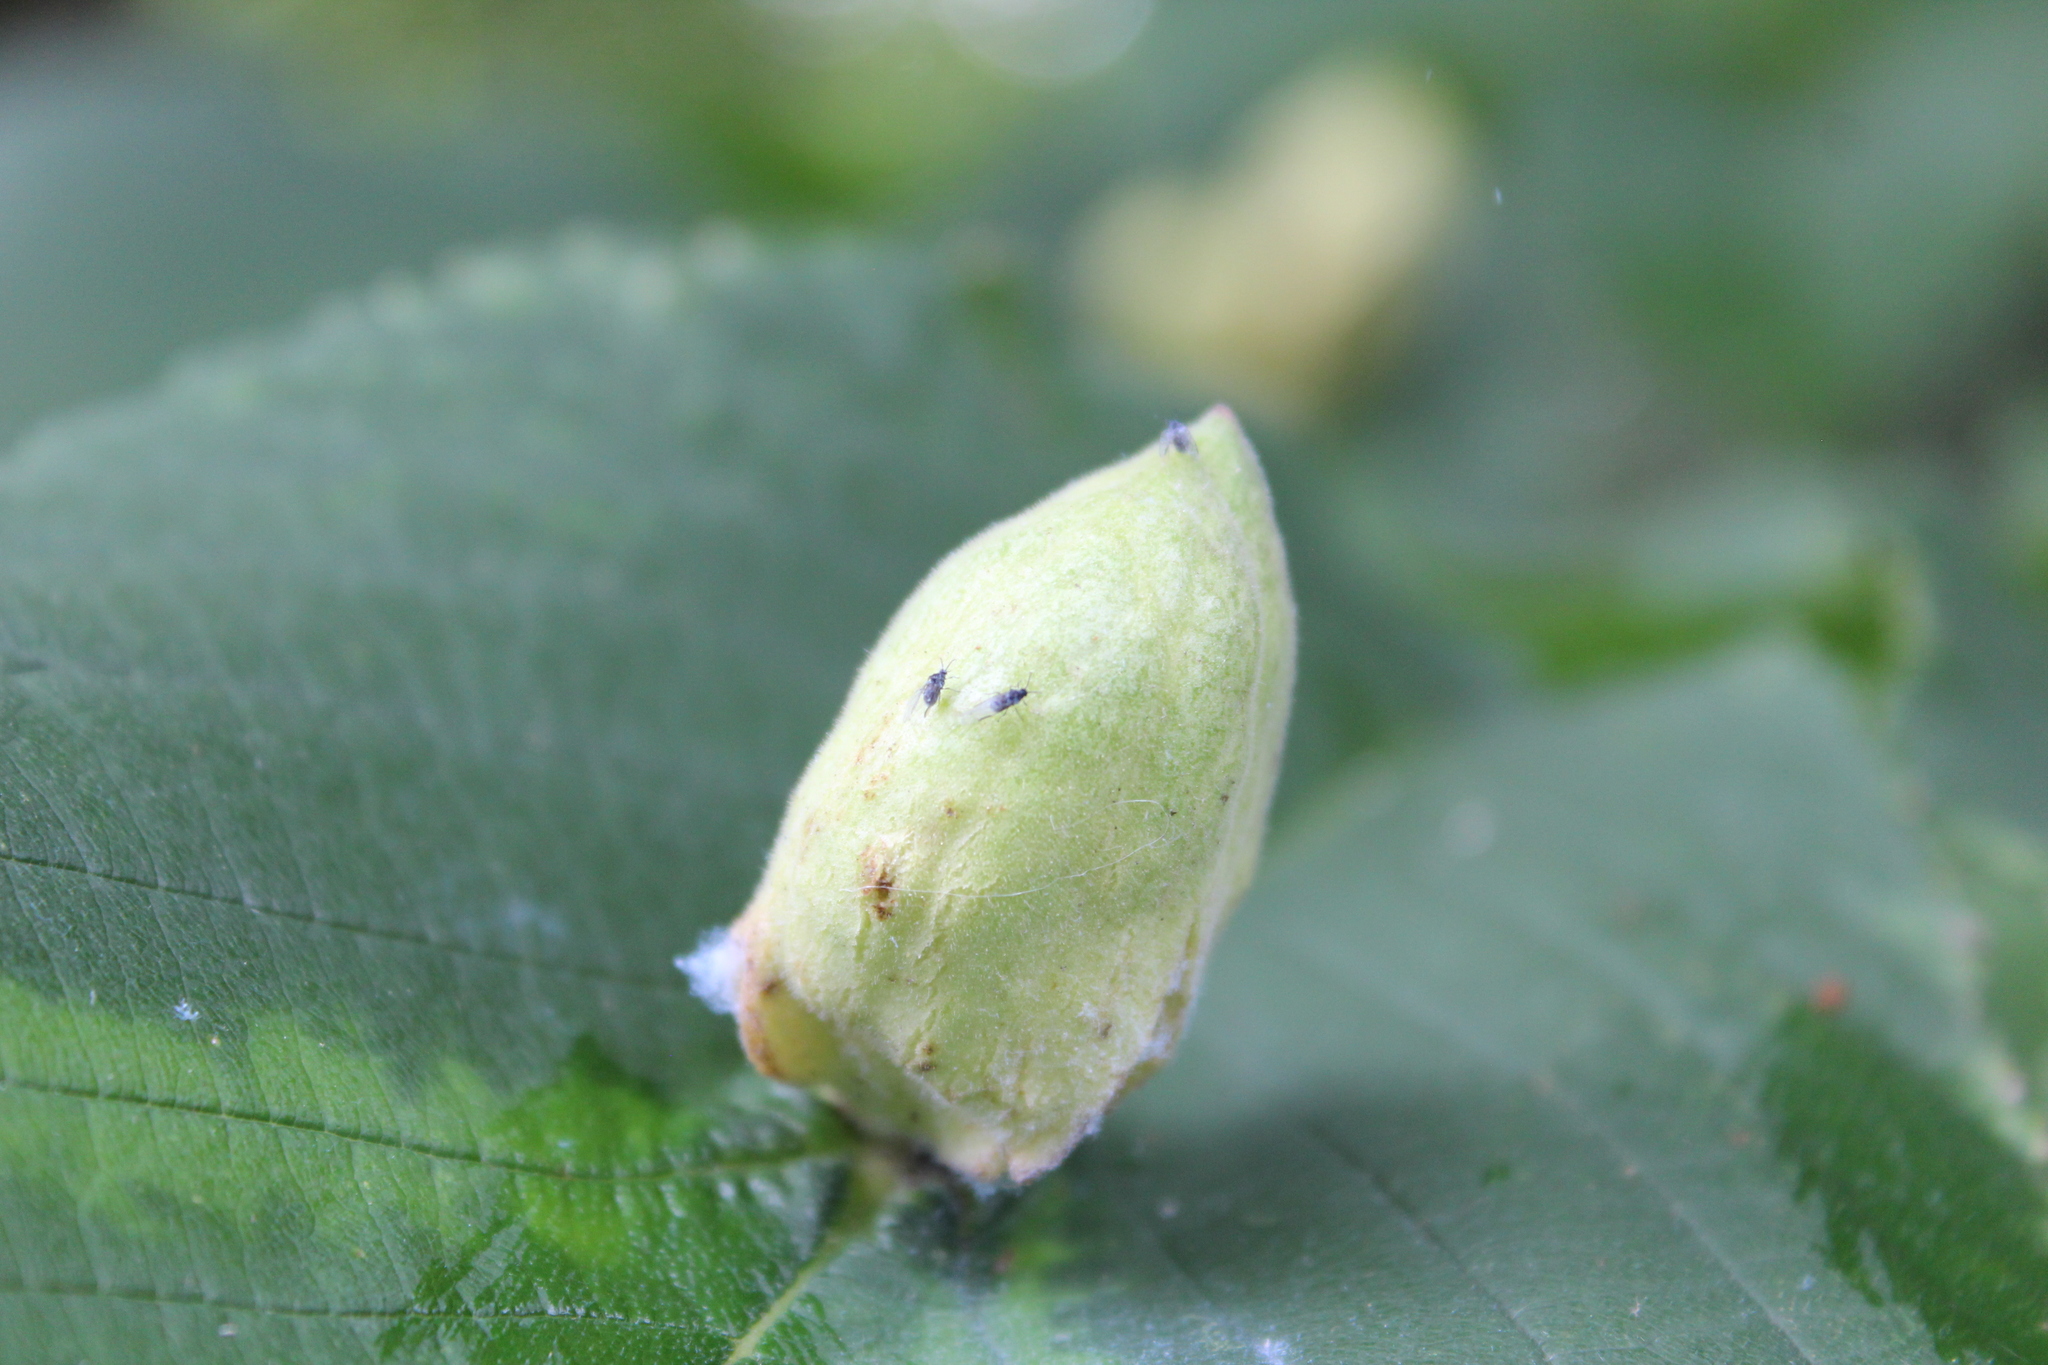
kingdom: Animalia
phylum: Arthropoda
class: Insecta
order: Hemiptera
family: Aphididae
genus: Kaltenbachiella
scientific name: Kaltenbachiella ulmifusa
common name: Elm pouchgall aphid
